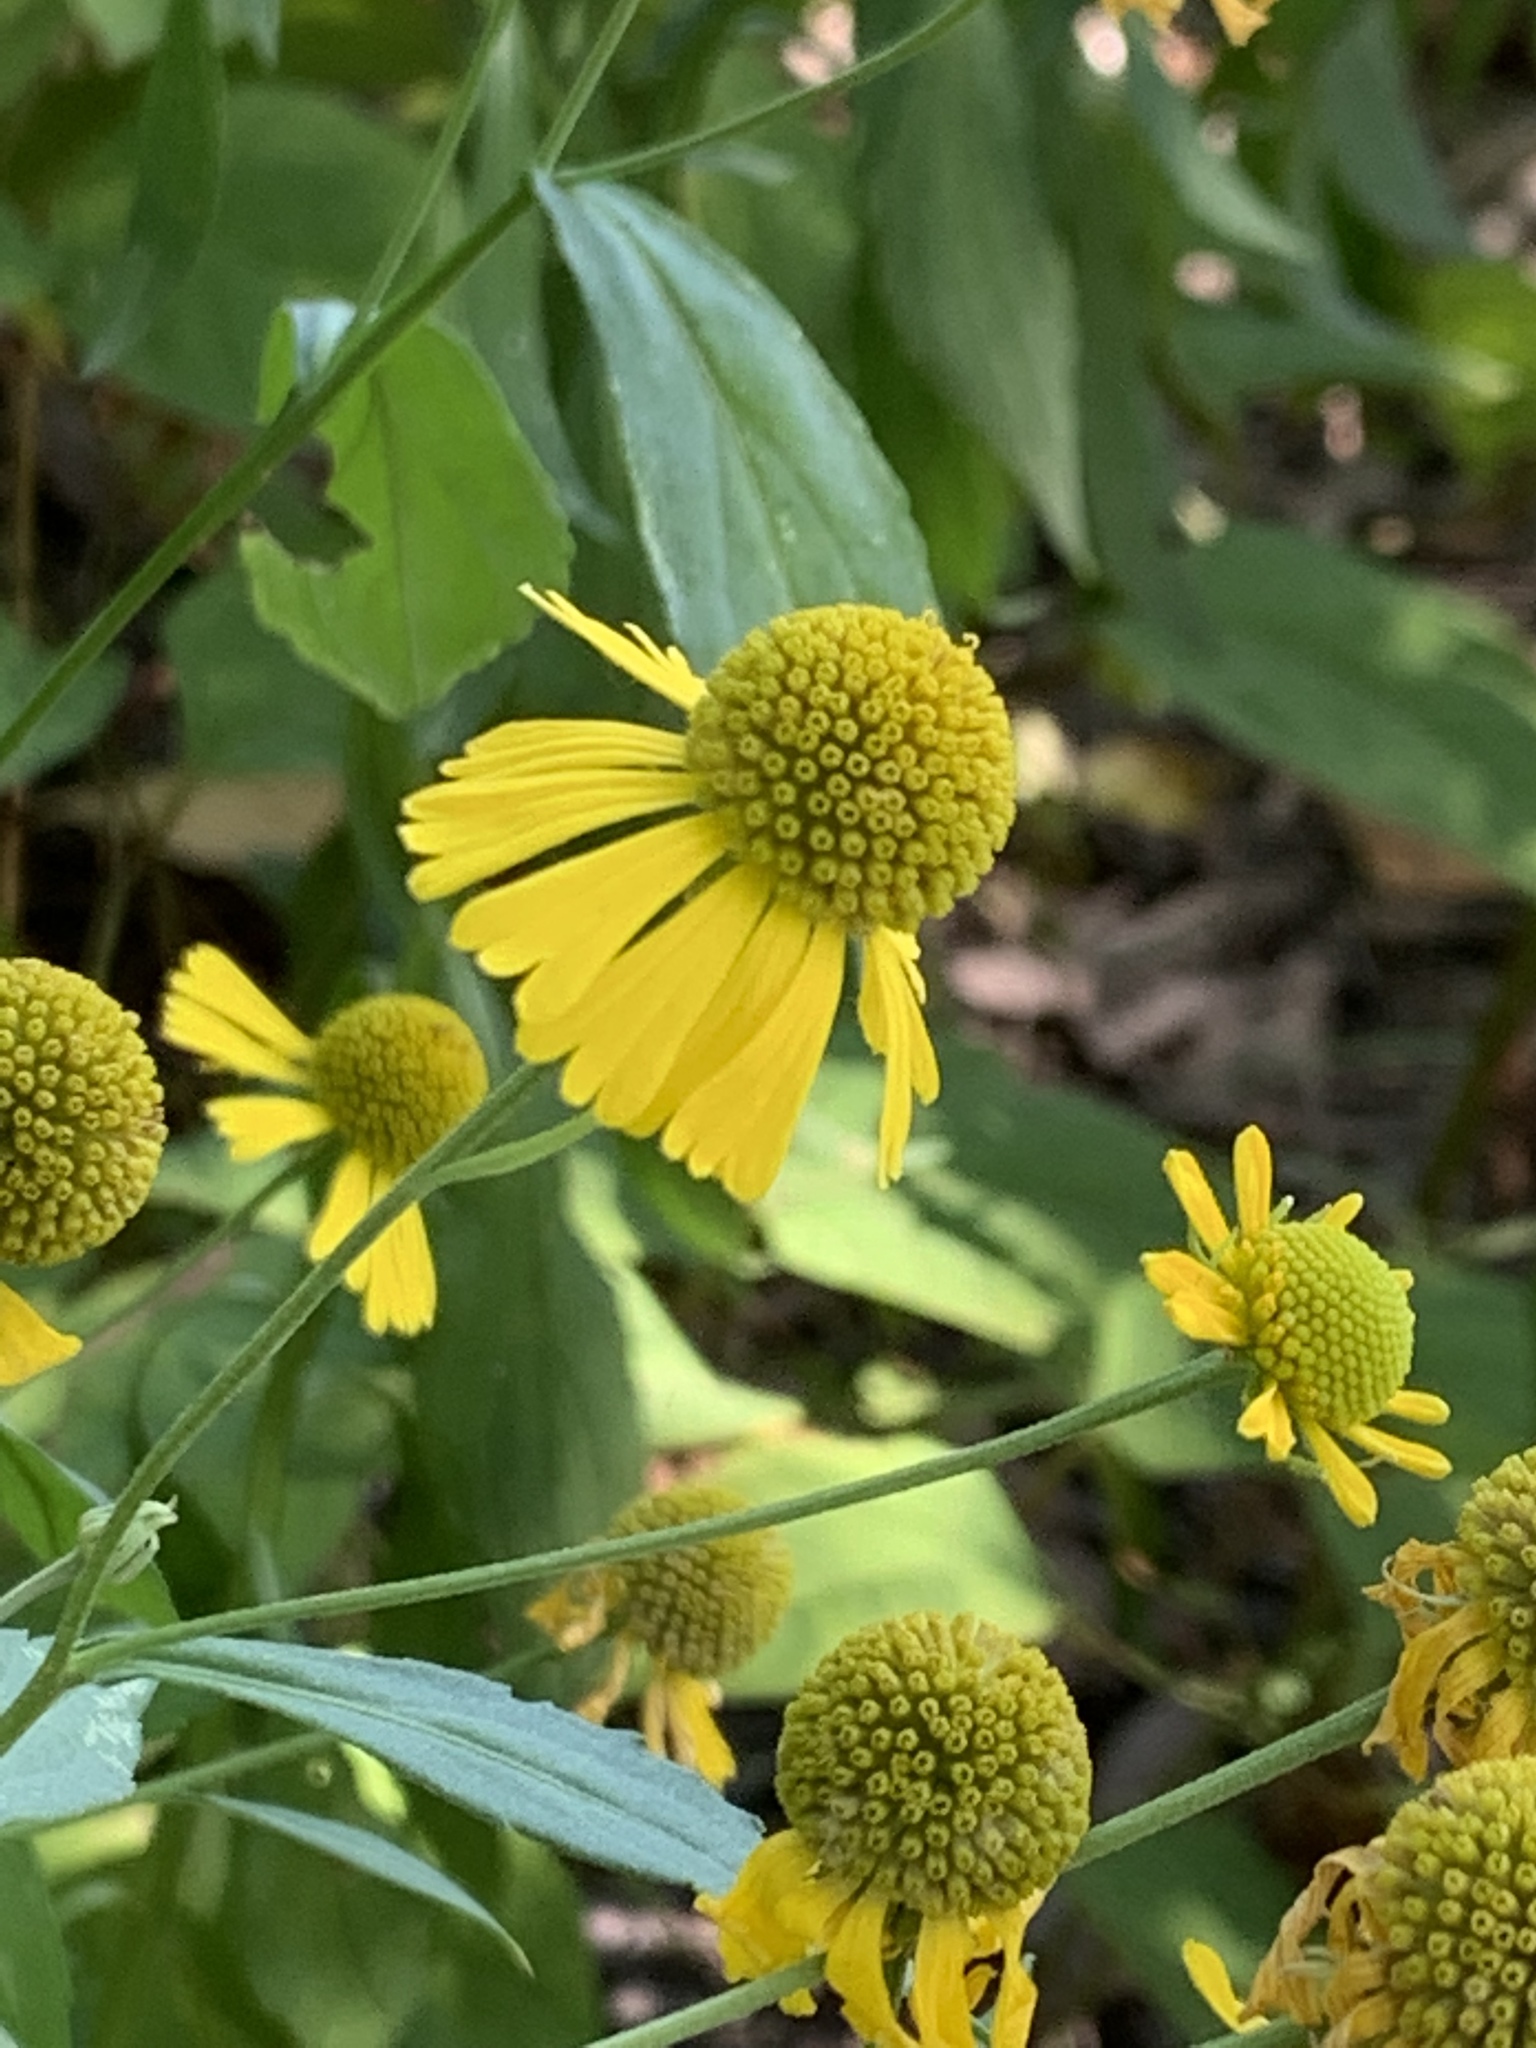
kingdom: Plantae
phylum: Tracheophyta
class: Magnoliopsida
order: Asterales
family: Asteraceae
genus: Helenium
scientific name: Helenium autumnale
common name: Sneezeweed
